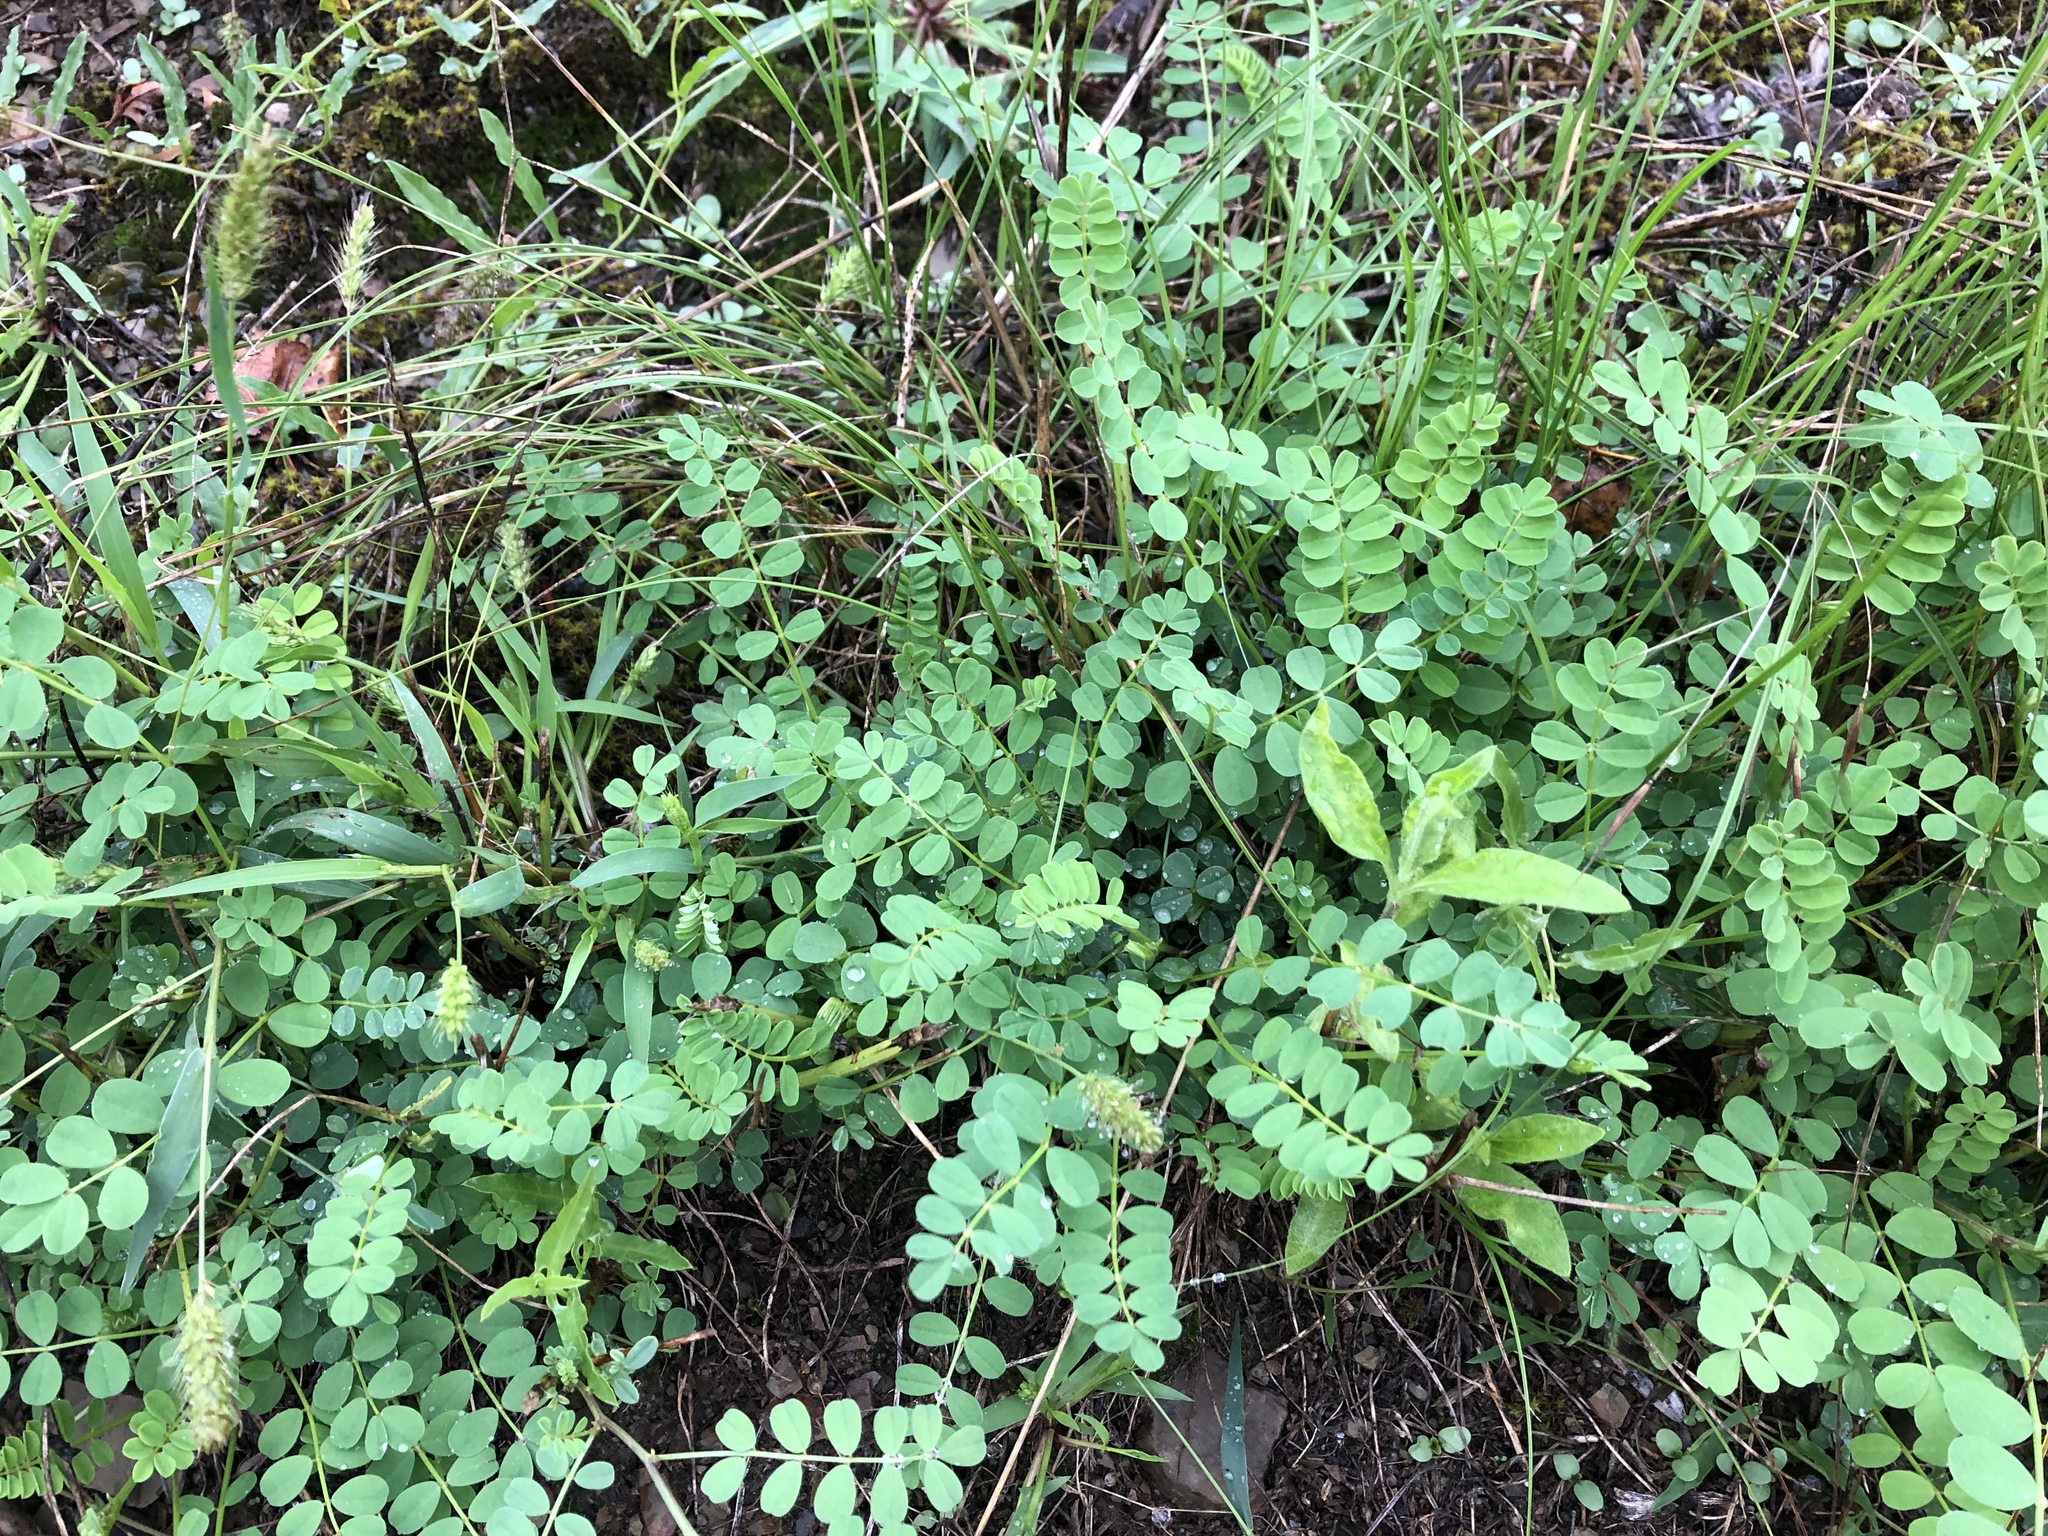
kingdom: Plantae
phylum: Tracheophyta
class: Magnoliopsida
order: Fabales
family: Fabaceae
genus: Coronilla
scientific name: Coronilla varia
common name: Crownvetch
